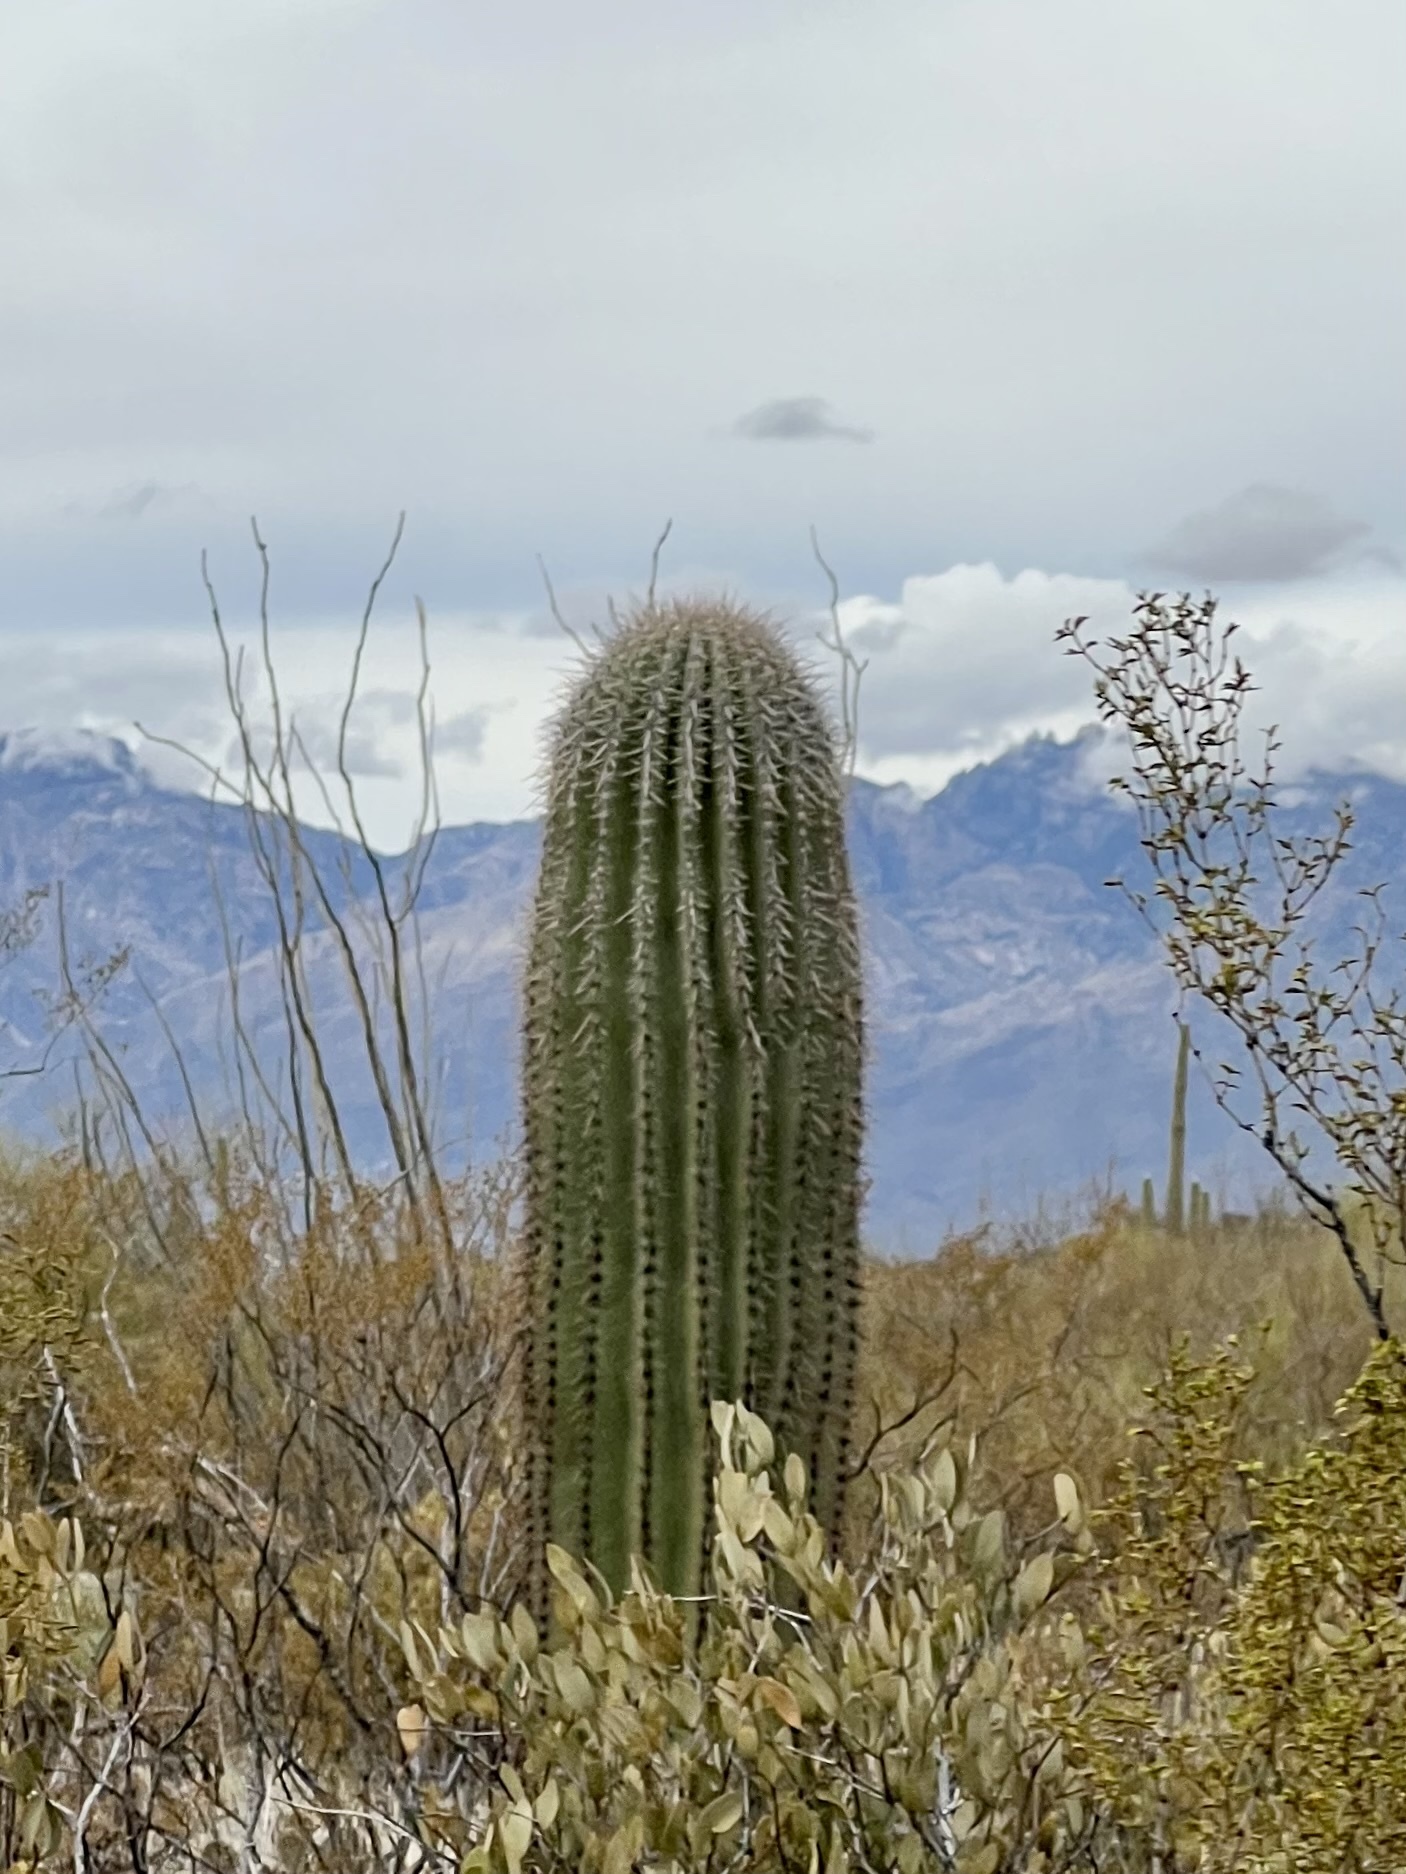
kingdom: Plantae
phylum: Tracheophyta
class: Magnoliopsida
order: Caryophyllales
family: Cactaceae
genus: Carnegiea
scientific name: Carnegiea gigantea
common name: Saguaro
